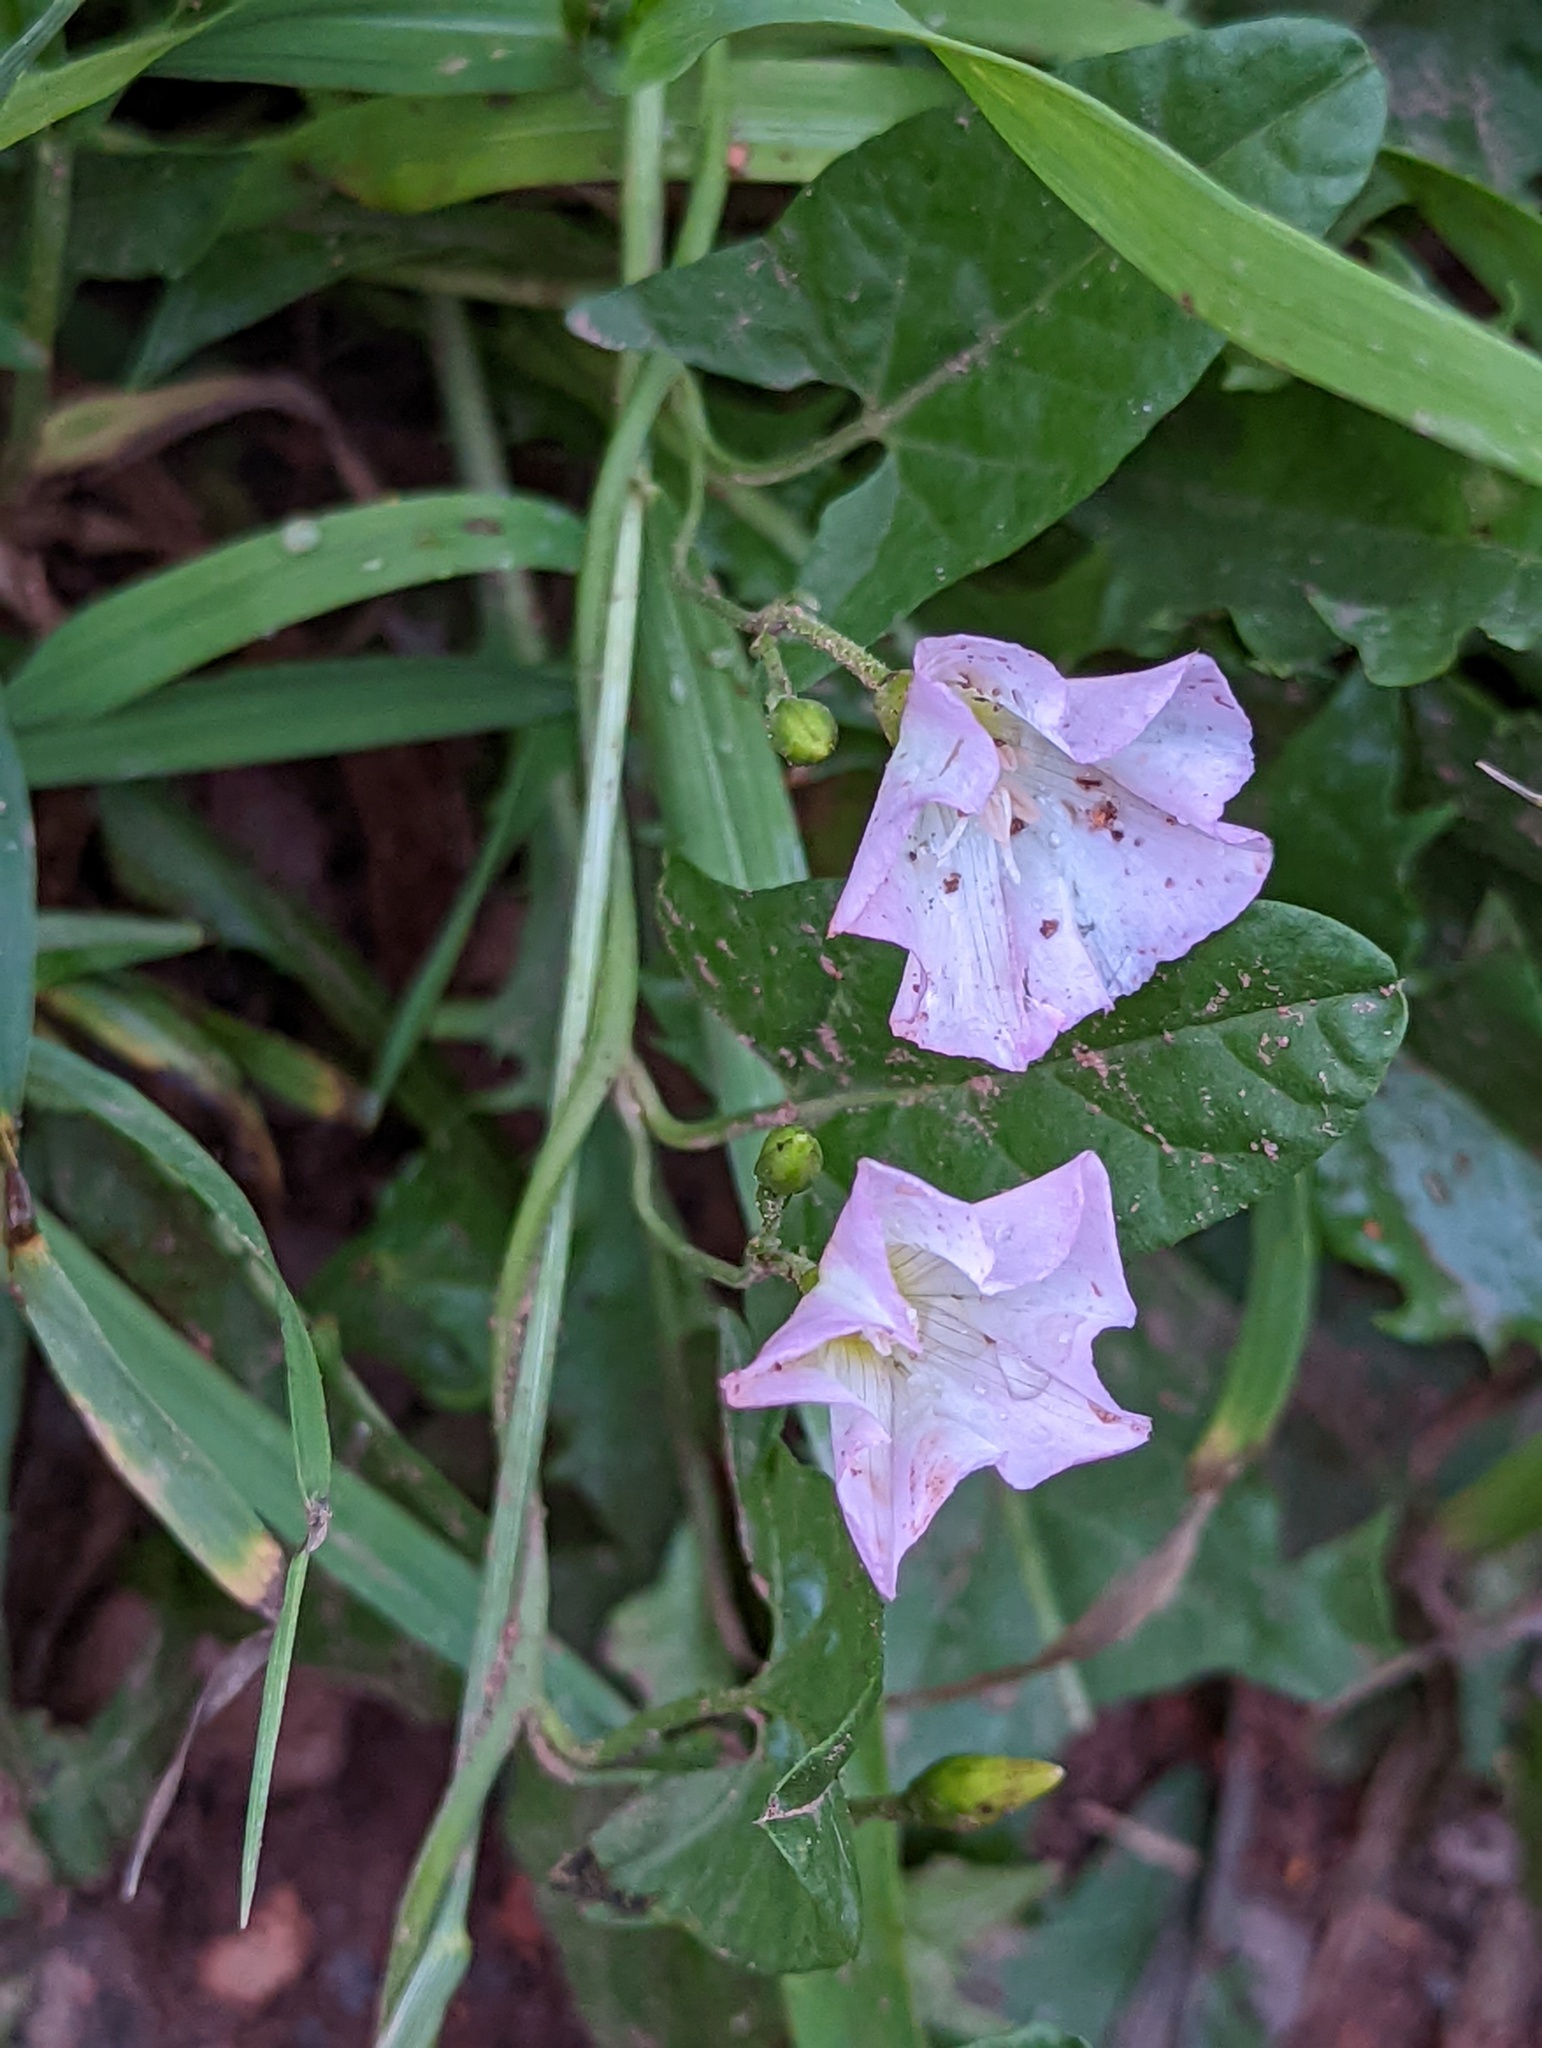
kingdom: Plantae
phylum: Tracheophyta
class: Magnoliopsida
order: Solanales
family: Convolvulaceae
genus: Convolvulus
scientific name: Convolvulus arvensis
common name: Field bindweed
